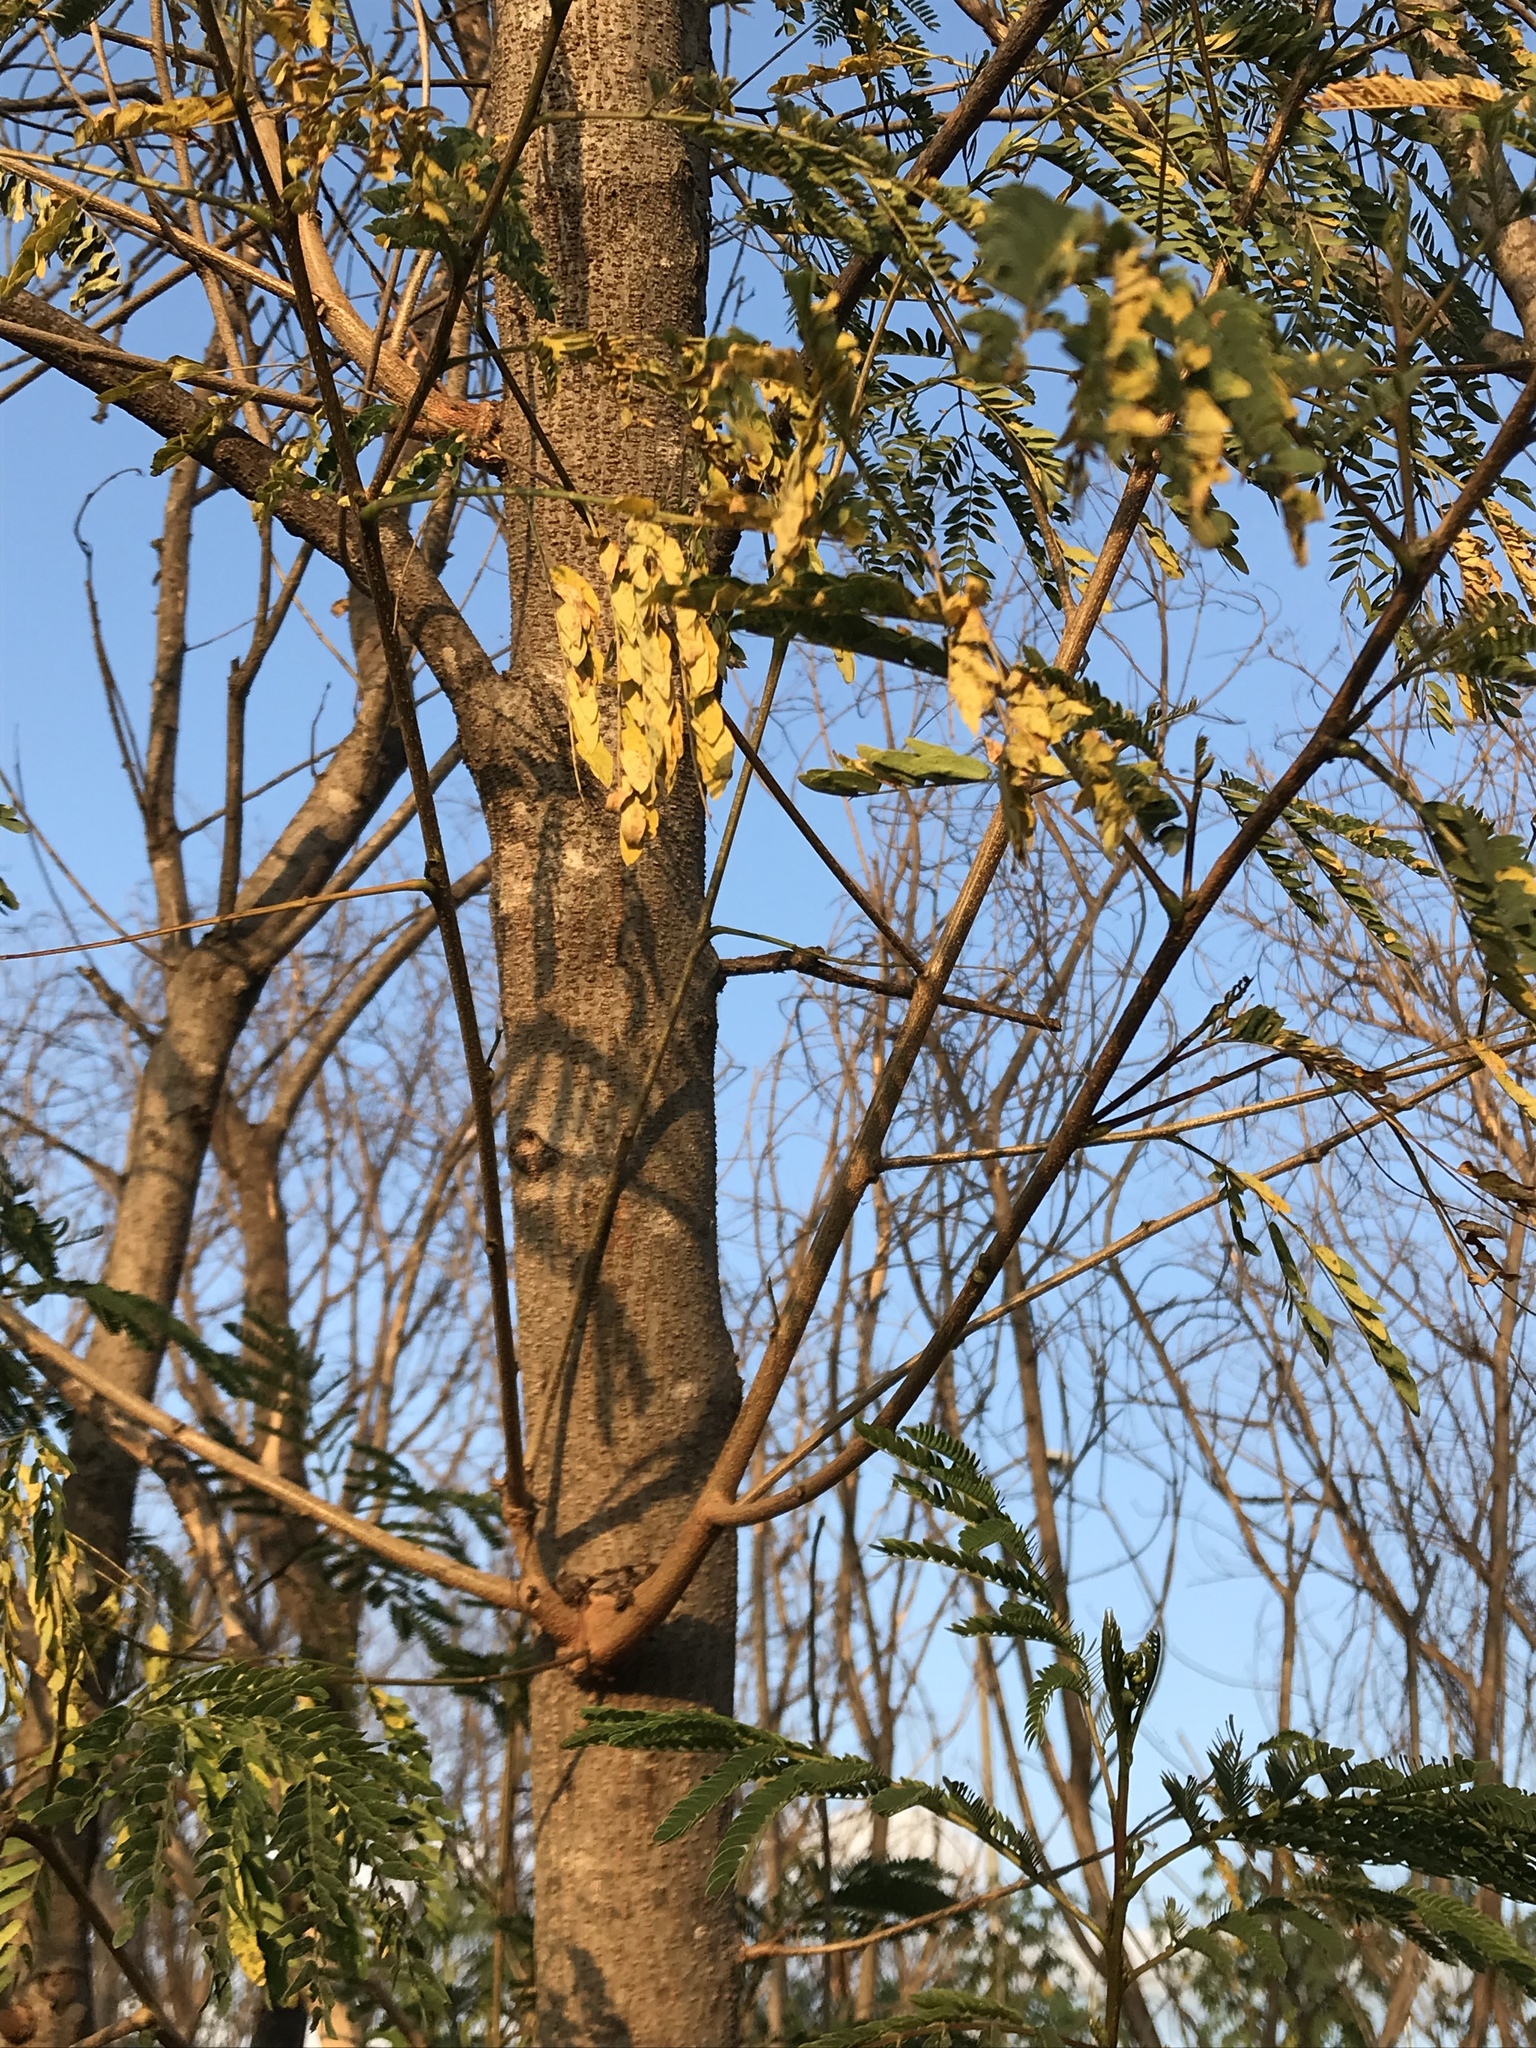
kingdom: Plantae
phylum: Tracheophyta
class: Magnoliopsida
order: Fabales
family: Fabaceae
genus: Leucaena
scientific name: Leucaena leucocephala
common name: White leadtree
